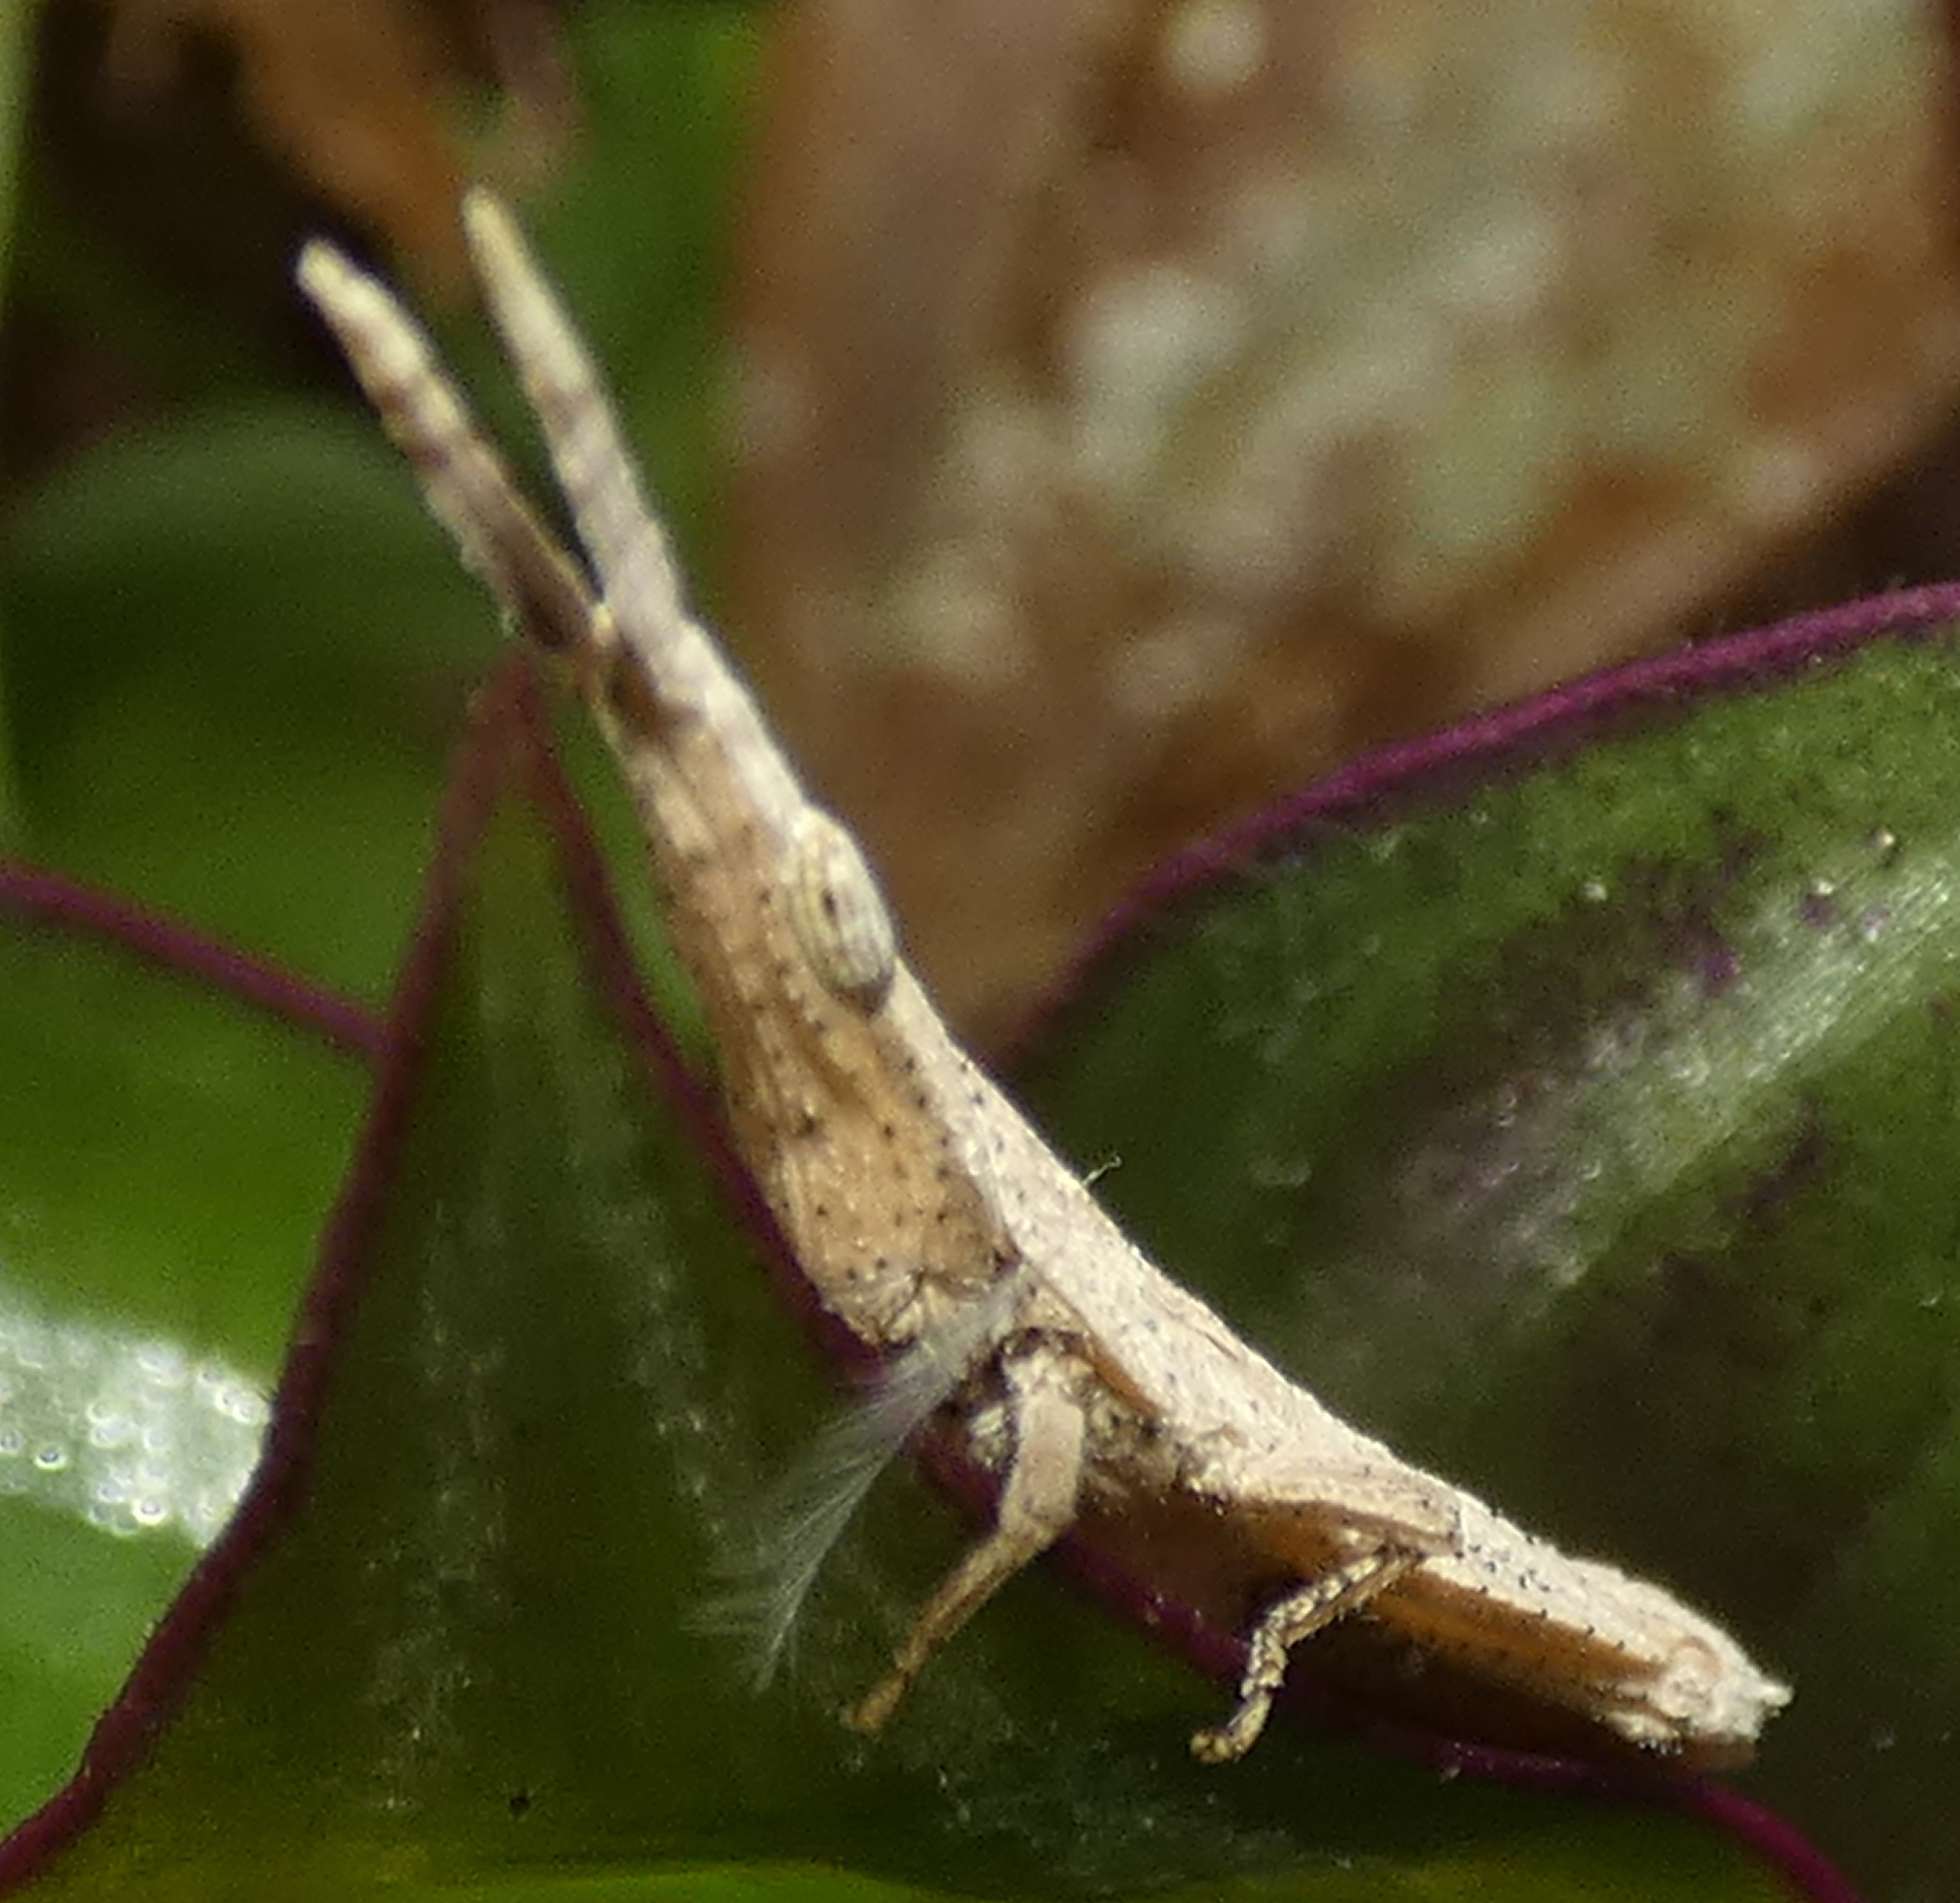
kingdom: Animalia
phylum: Arthropoda
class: Insecta
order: Orthoptera
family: Pyrgomorphidae
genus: Algete
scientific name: Algete brunneri
